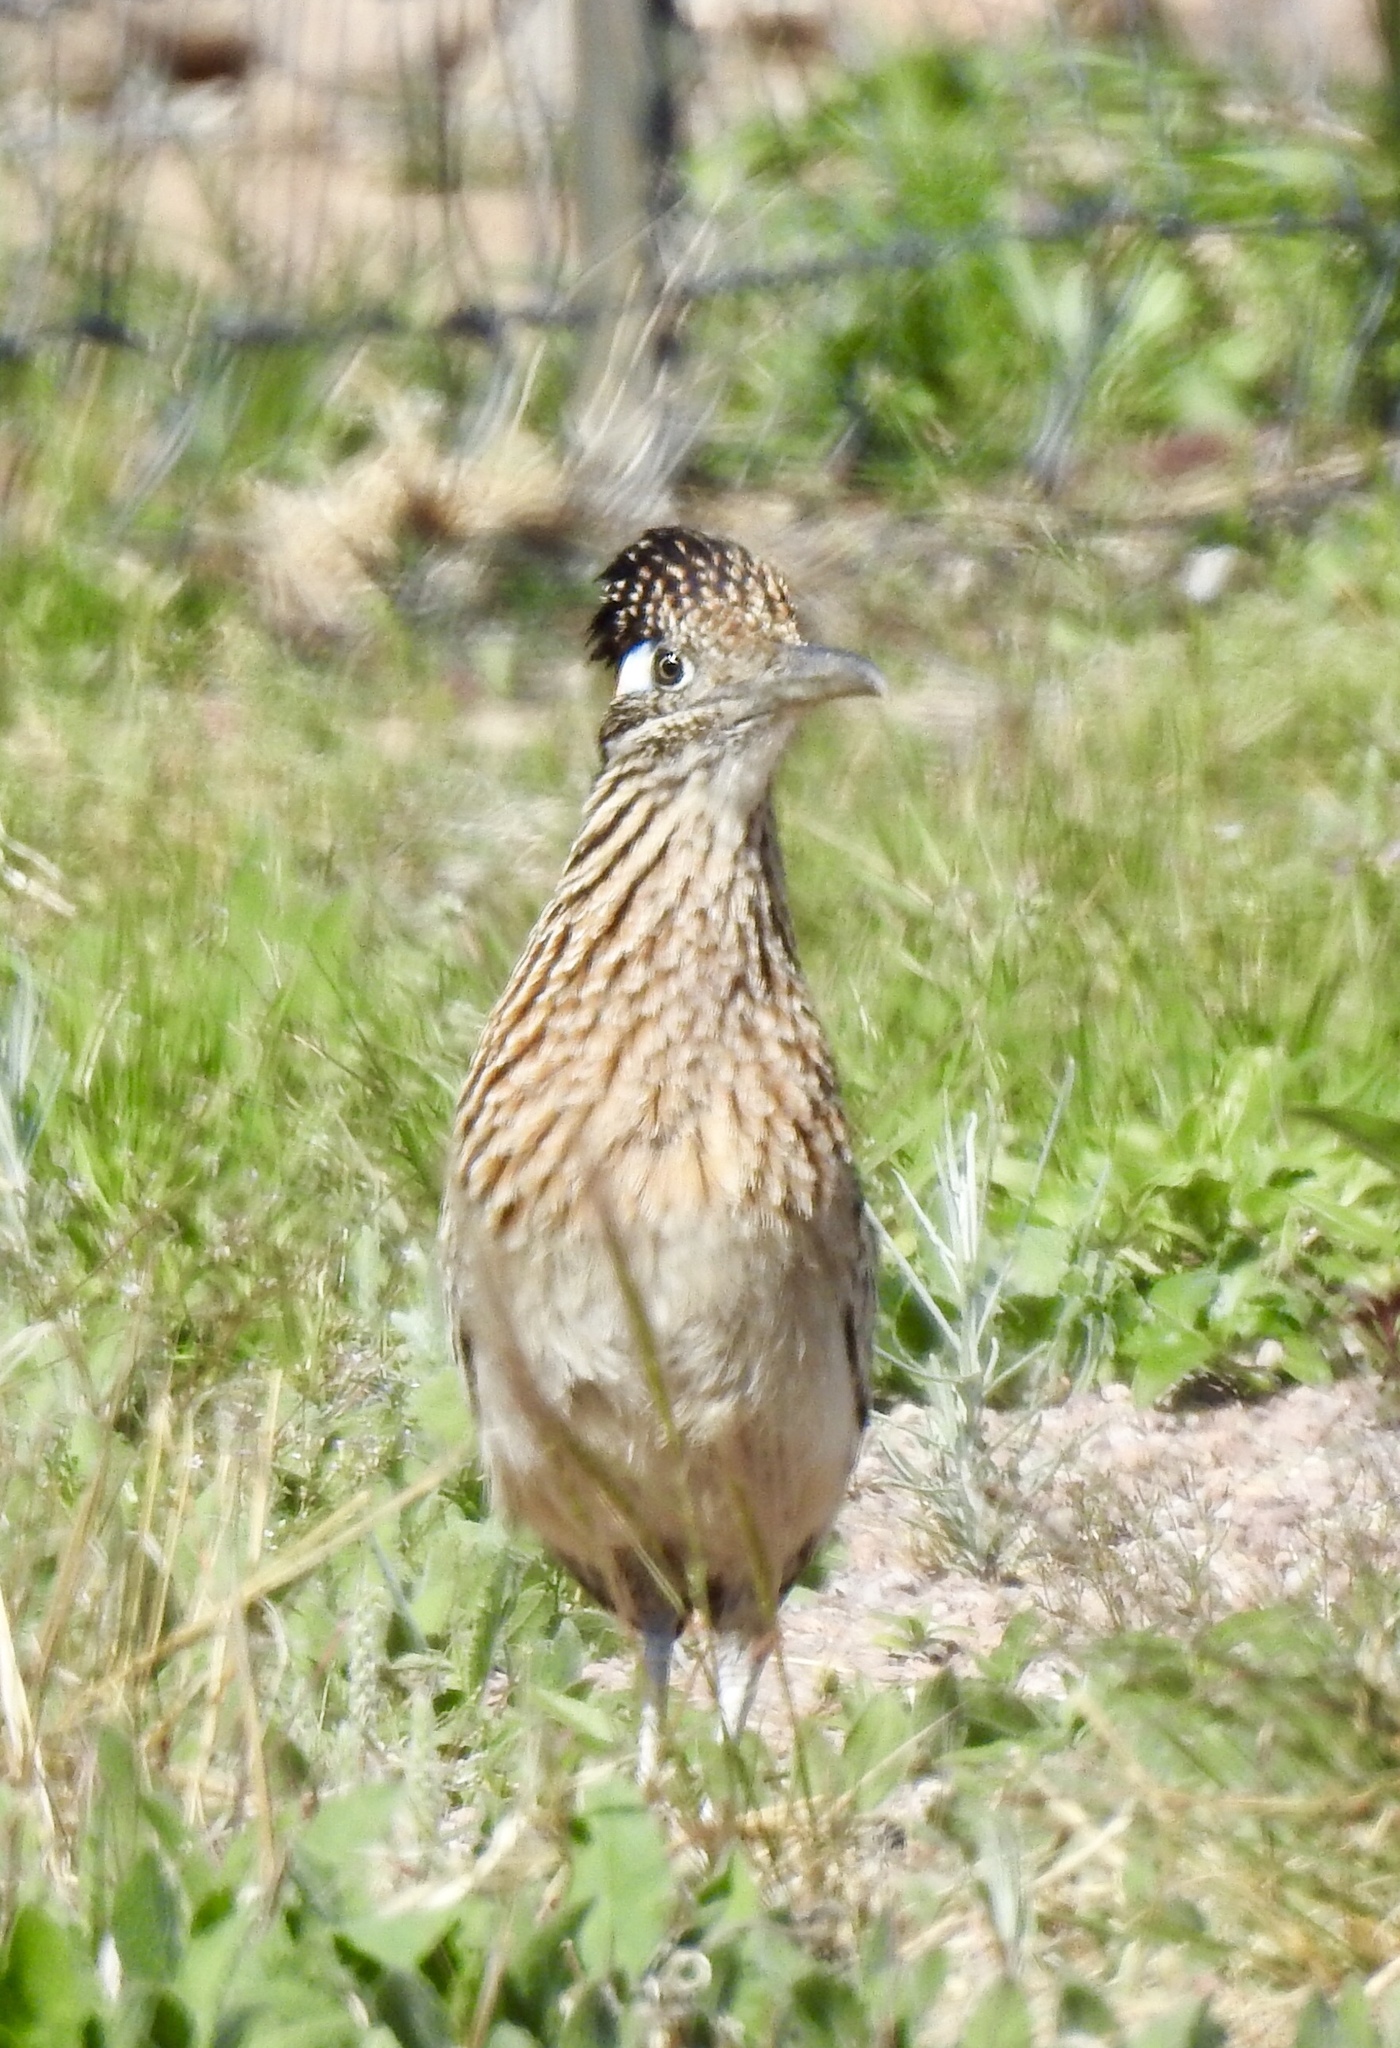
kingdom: Animalia
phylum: Chordata
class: Aves
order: Cuculiformes
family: Cuculidae
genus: Geococcyx
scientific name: Geococcyx californianus
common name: Greater roadrunner
